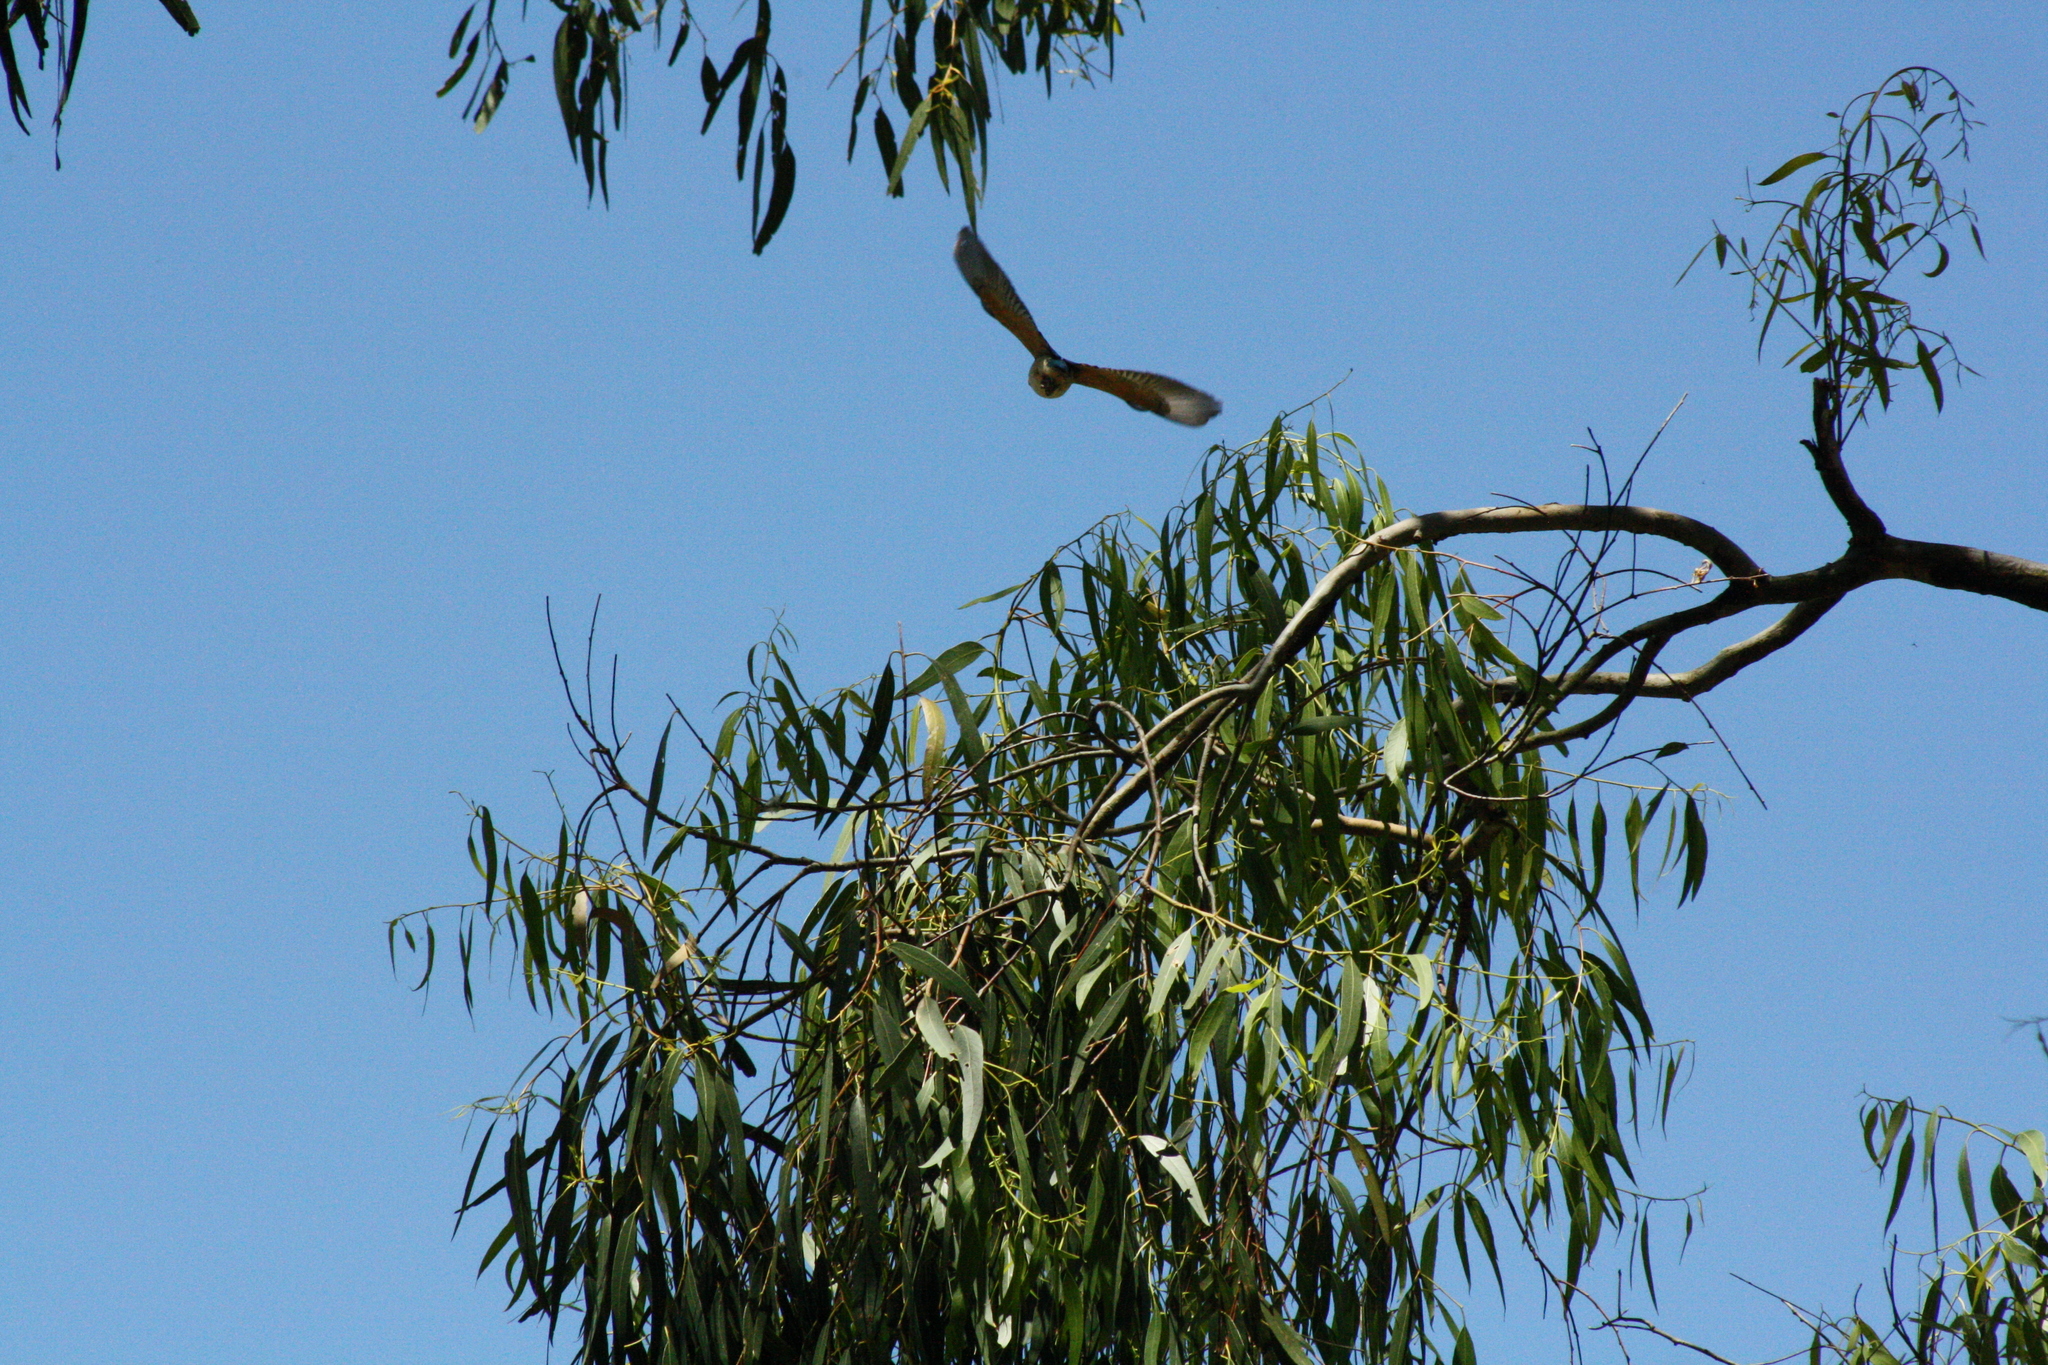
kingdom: Animalia
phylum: Chordata
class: Aves
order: Coraciiformes
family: Alcedinidae
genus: Todiramphus
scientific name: Todiramphus sanctus
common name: Sacred kingfisher
